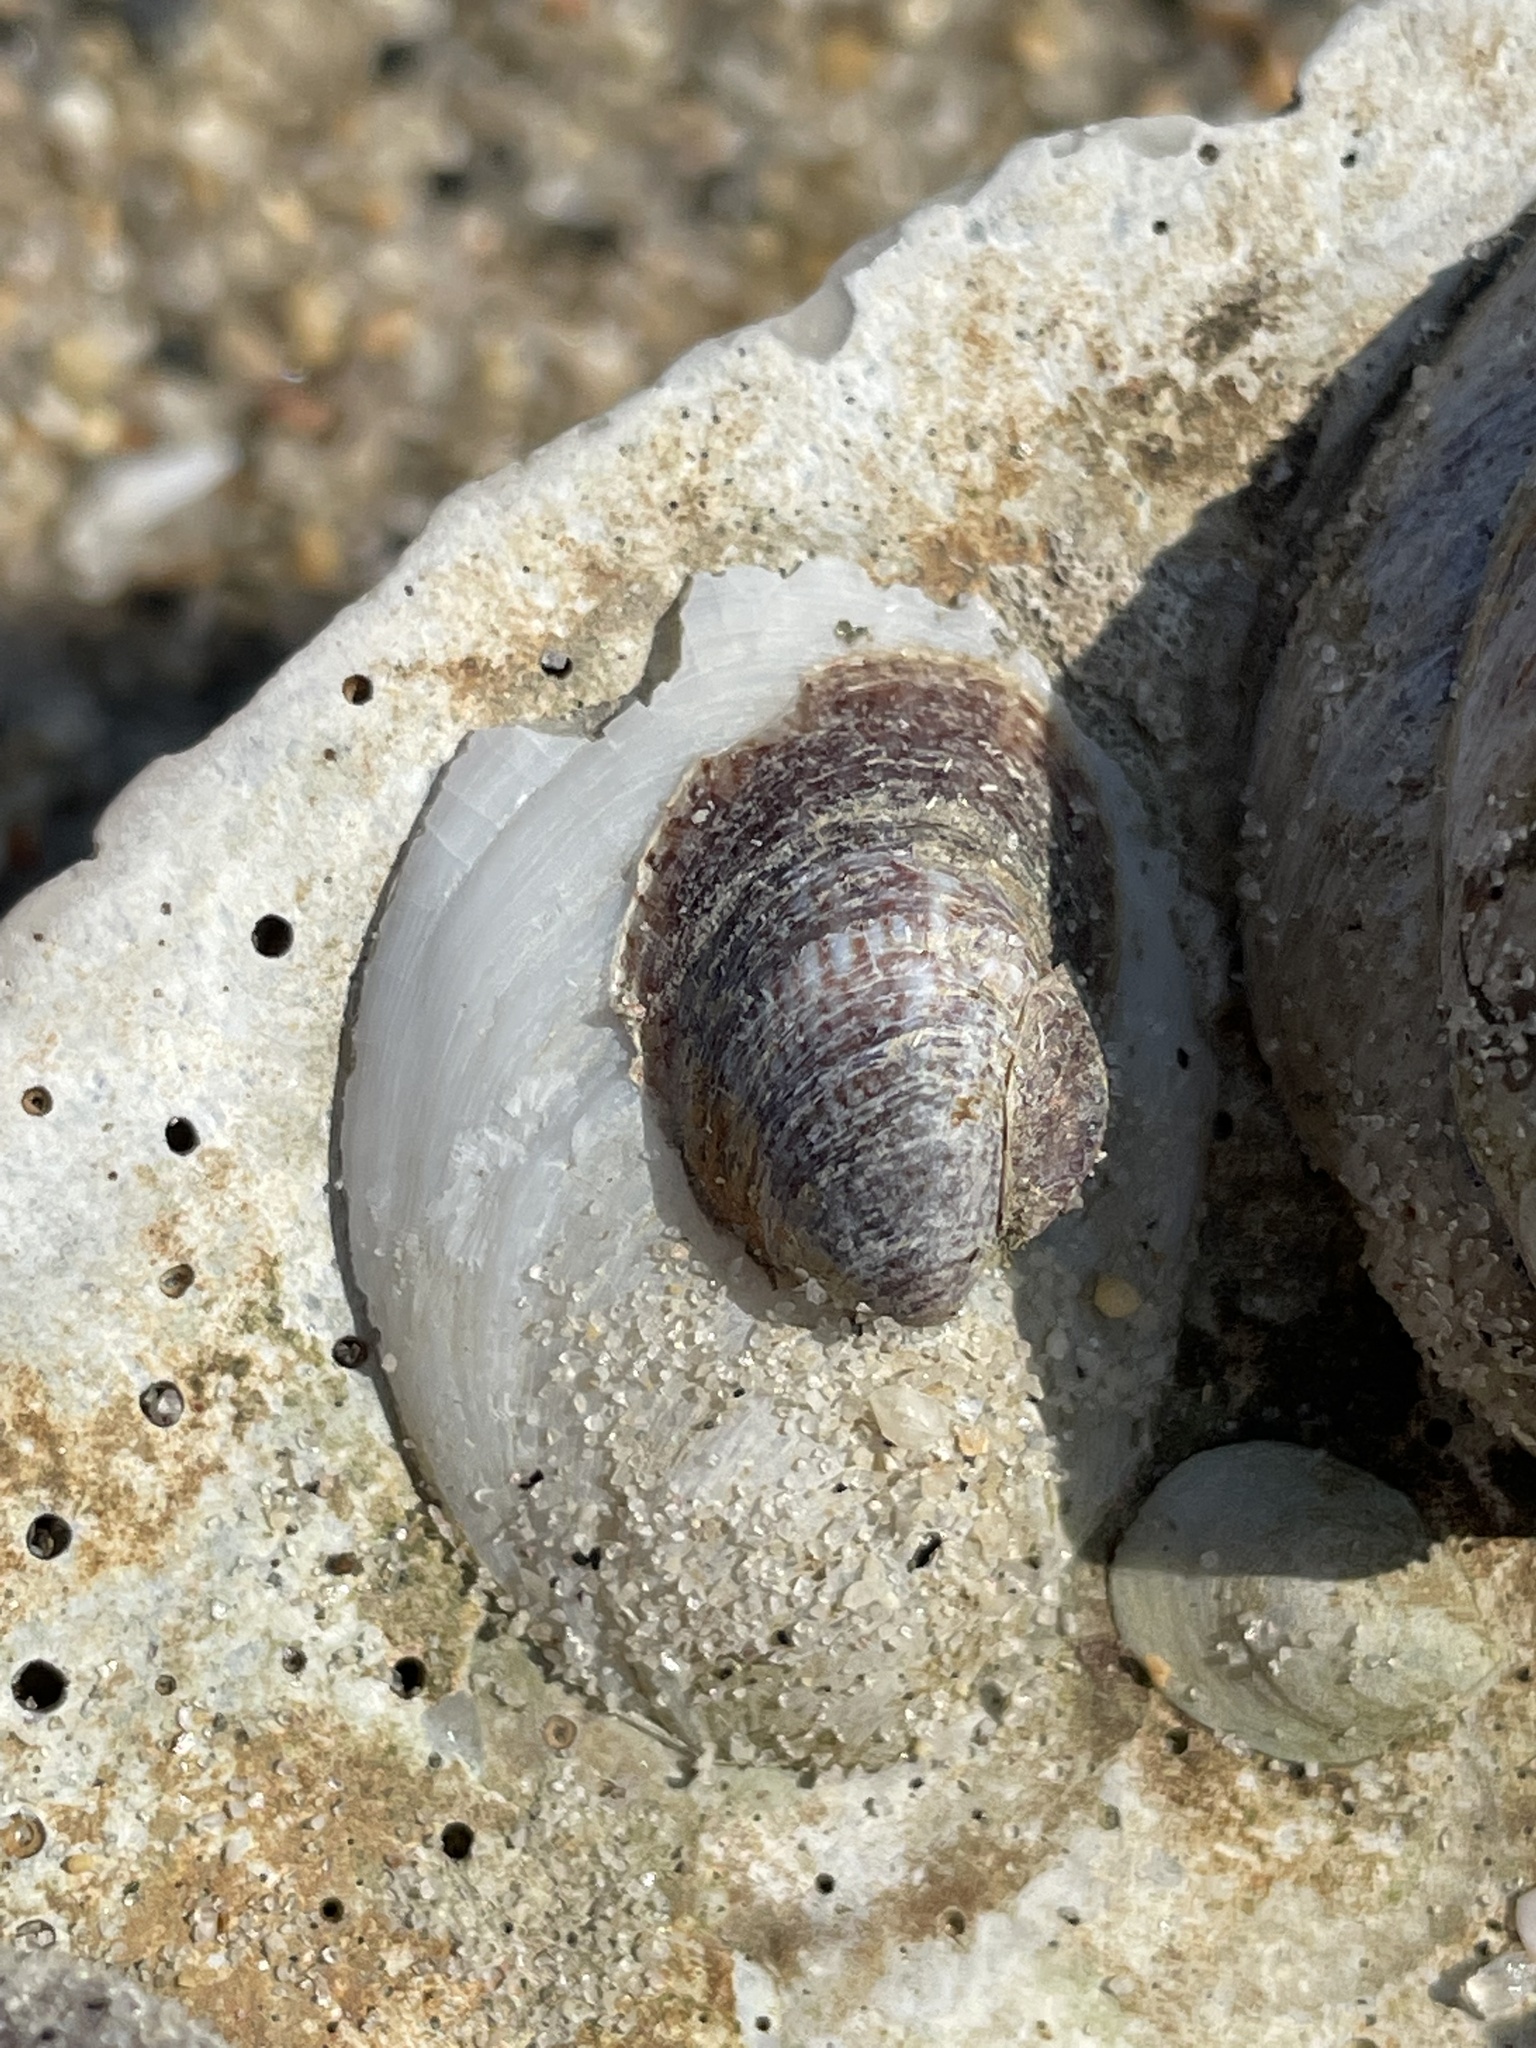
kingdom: Animalia
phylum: Mollusca
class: Gastropoda
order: Littorinimorpha
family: Calyptraeidae
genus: Crepidula
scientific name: Crepidula plana
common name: Eastern white slippersnail
